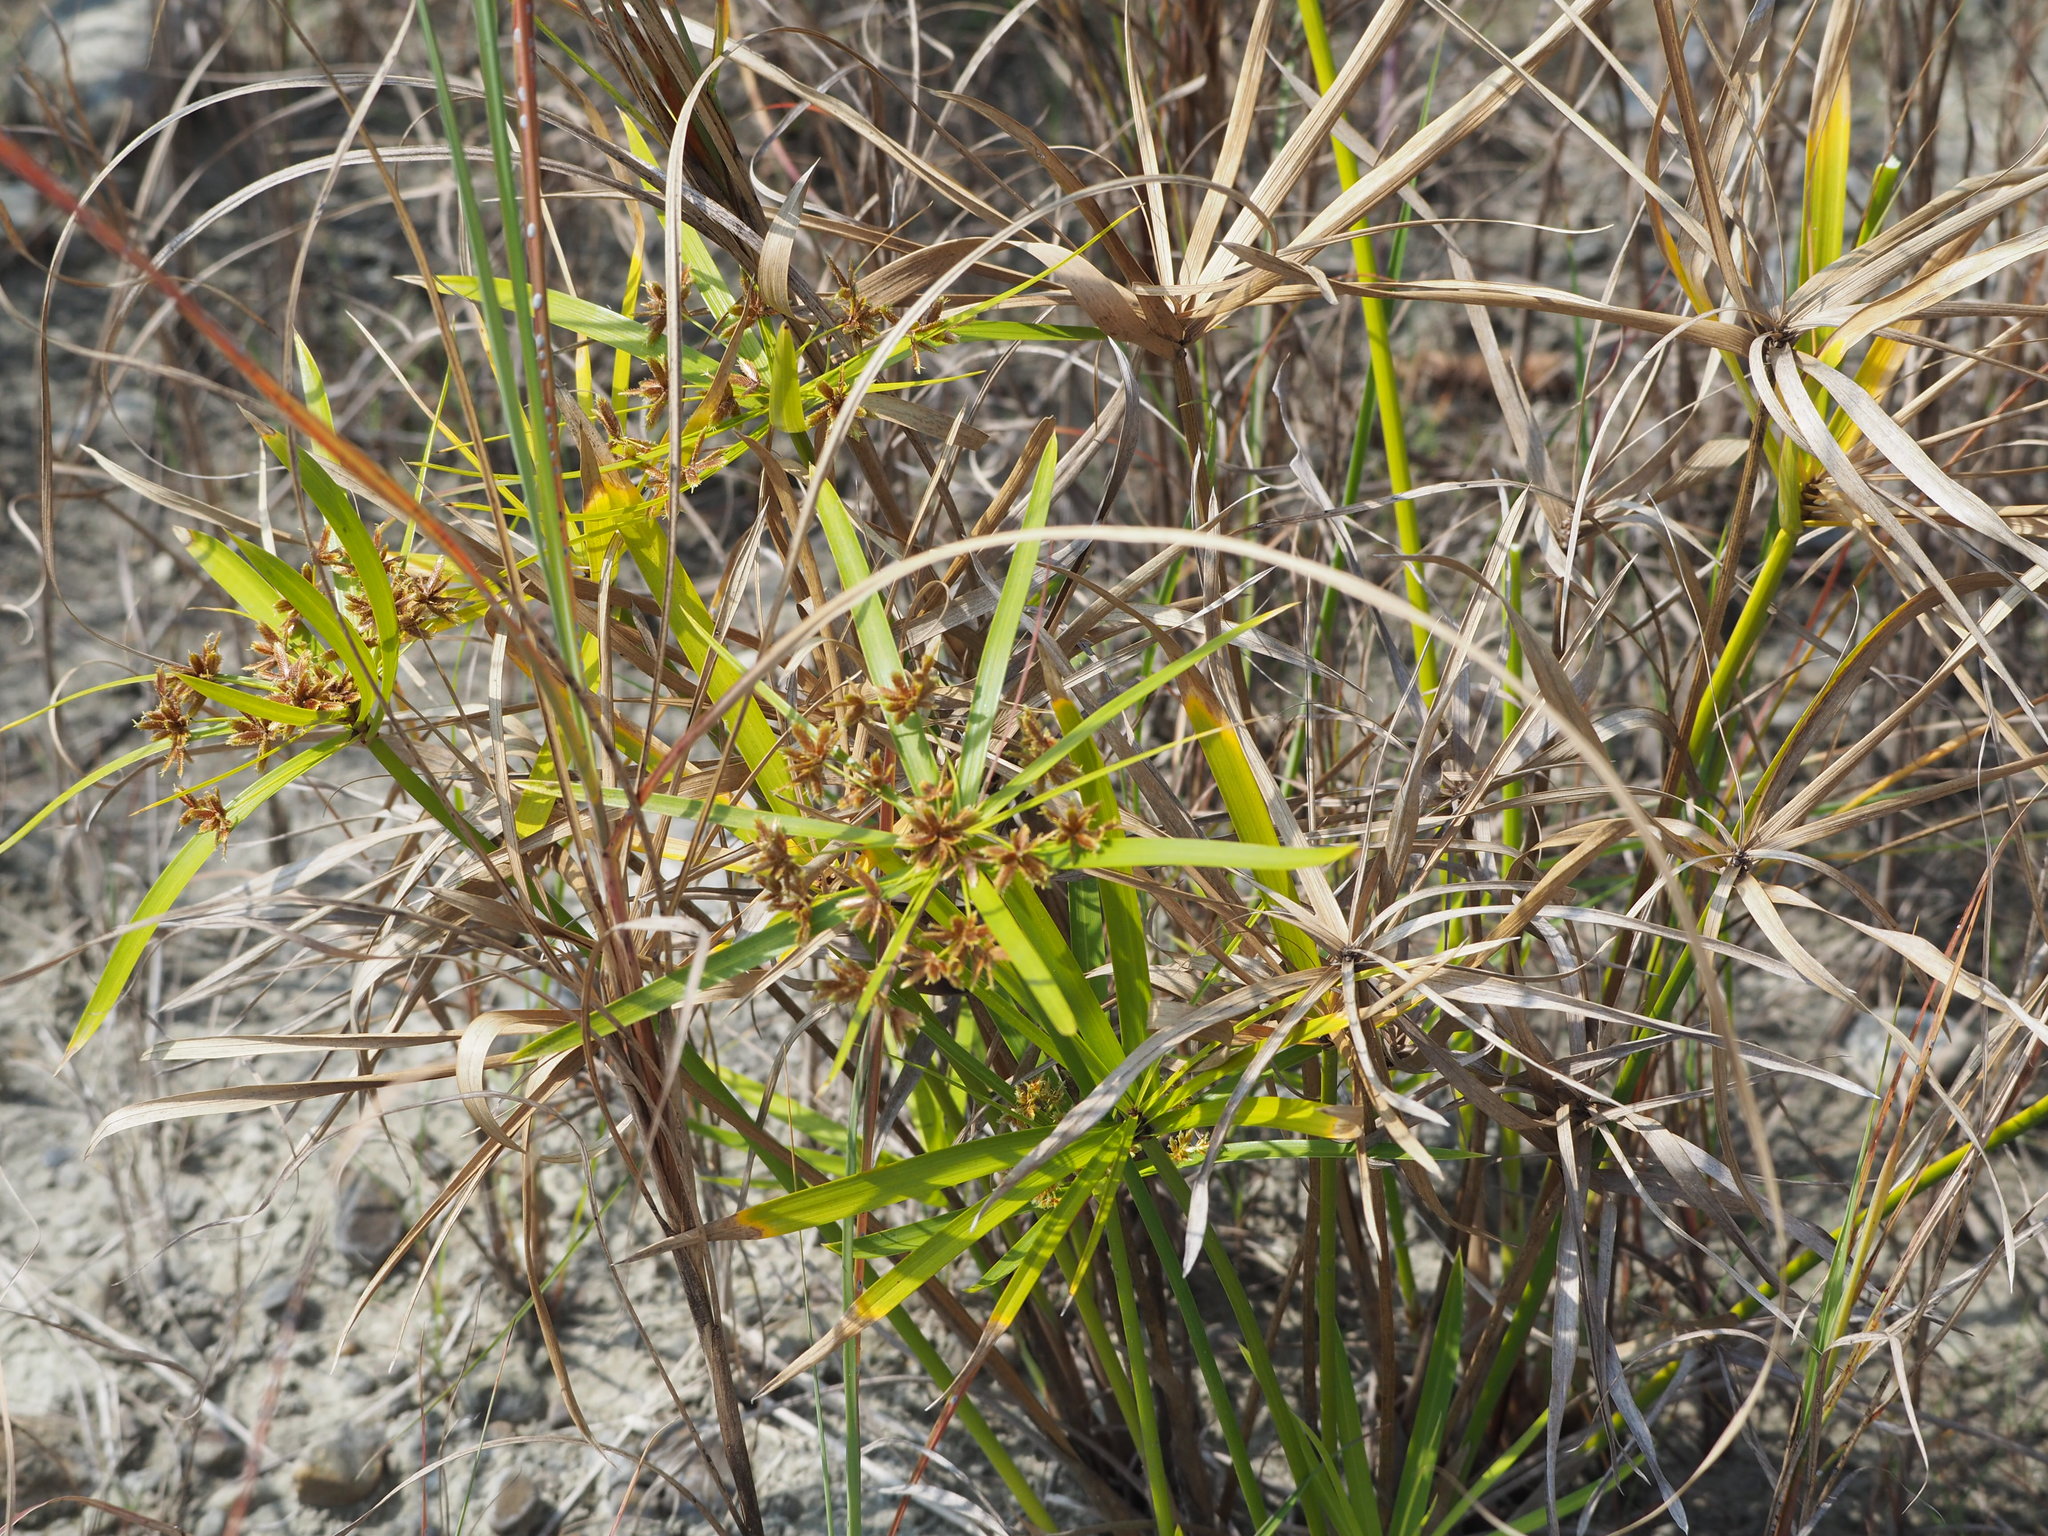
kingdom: Plantae
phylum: Tracheophyta
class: Liliopsida
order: Poales
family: Cyperaceae
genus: Cyperus
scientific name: Cyperus alternifolius
